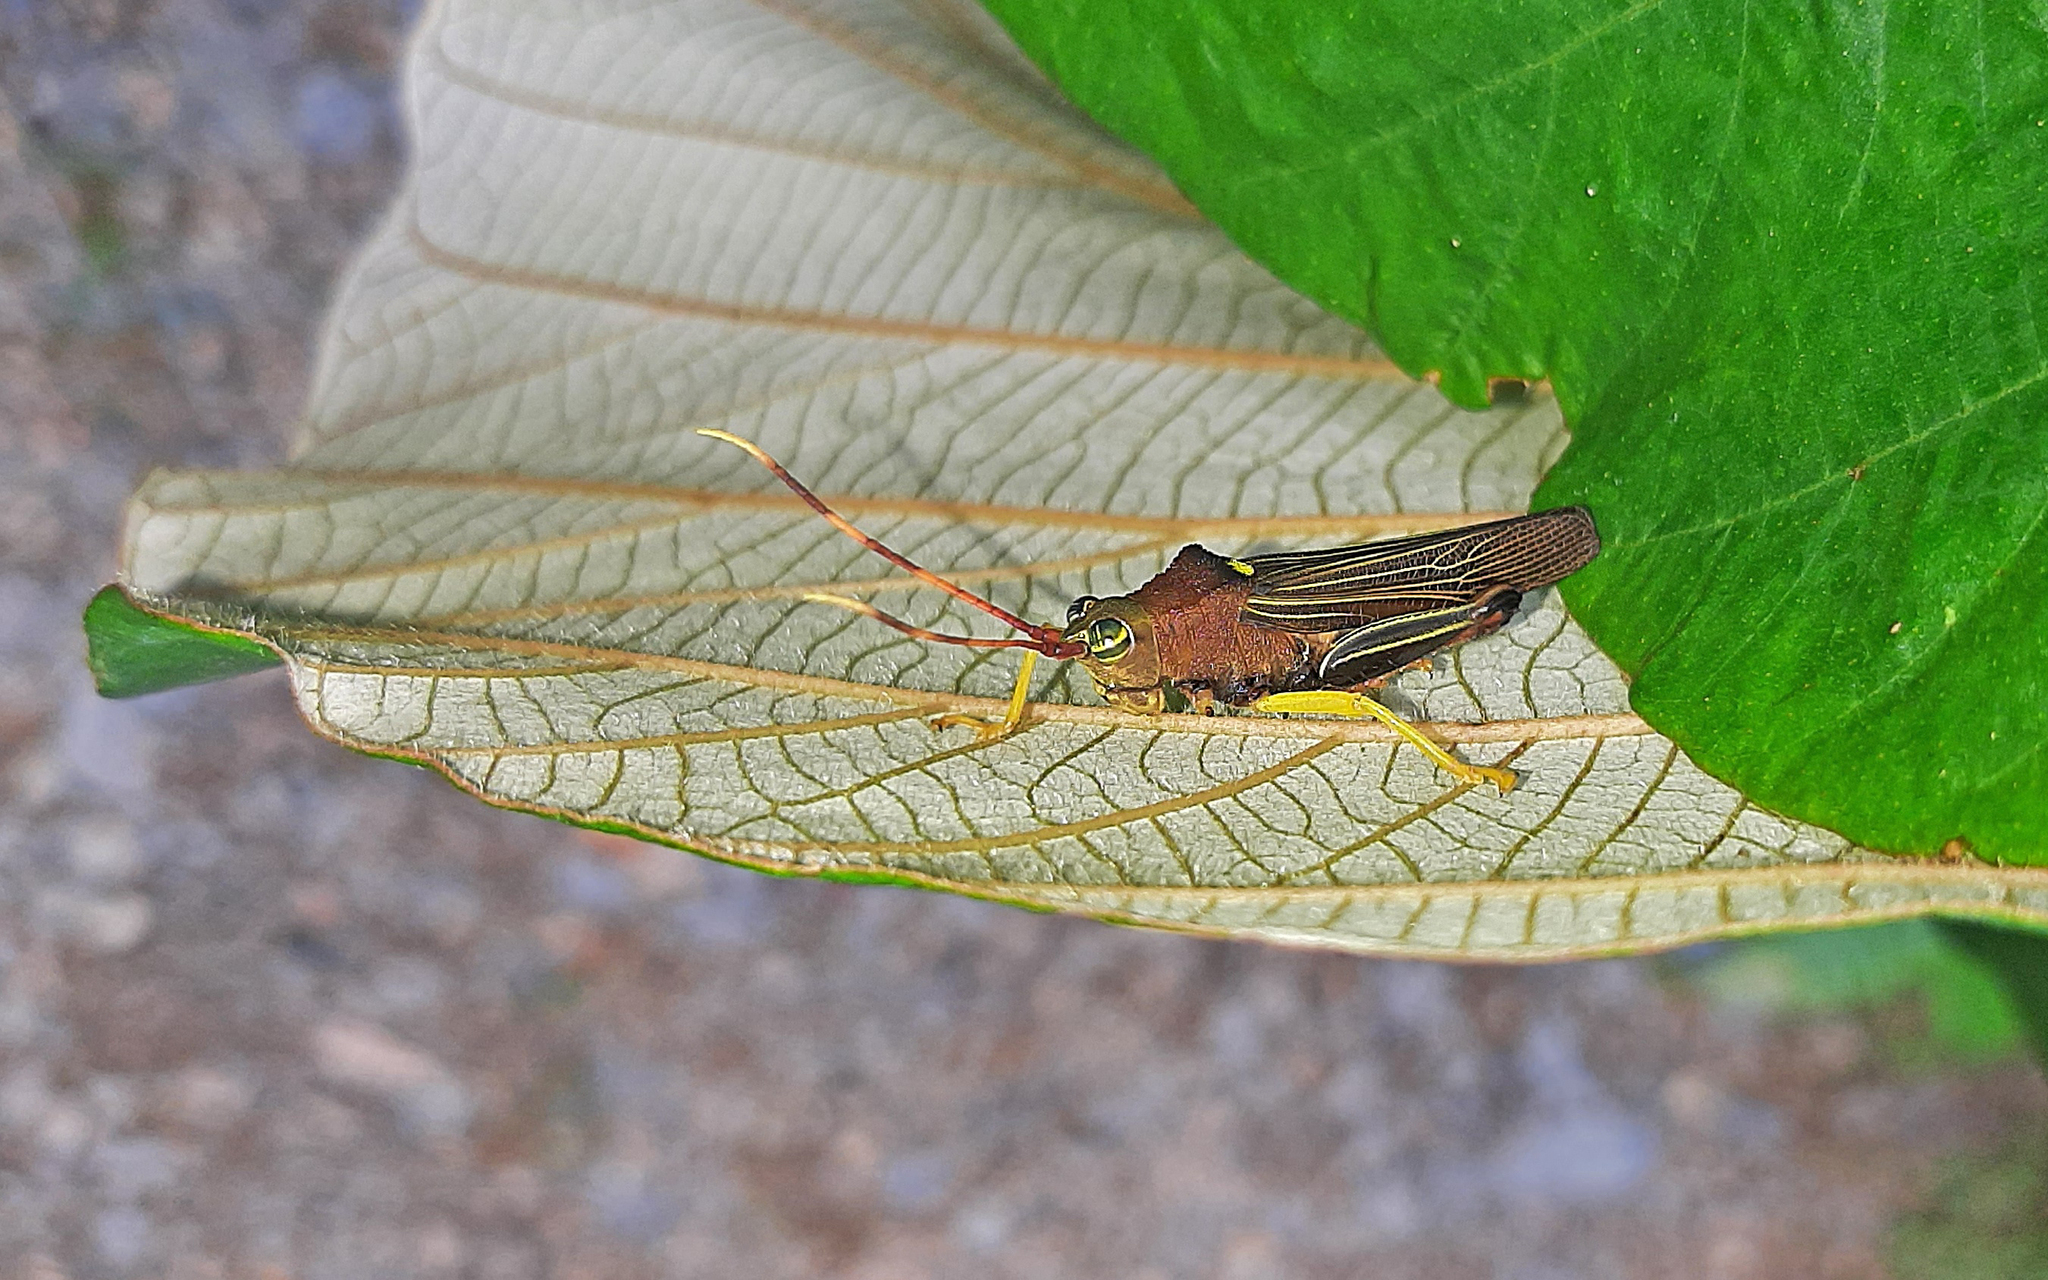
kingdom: Animalia
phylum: Arthropoda
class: Insecta
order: Orthoptera
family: Acrididae
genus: Hippacris
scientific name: Hippacris diversa
